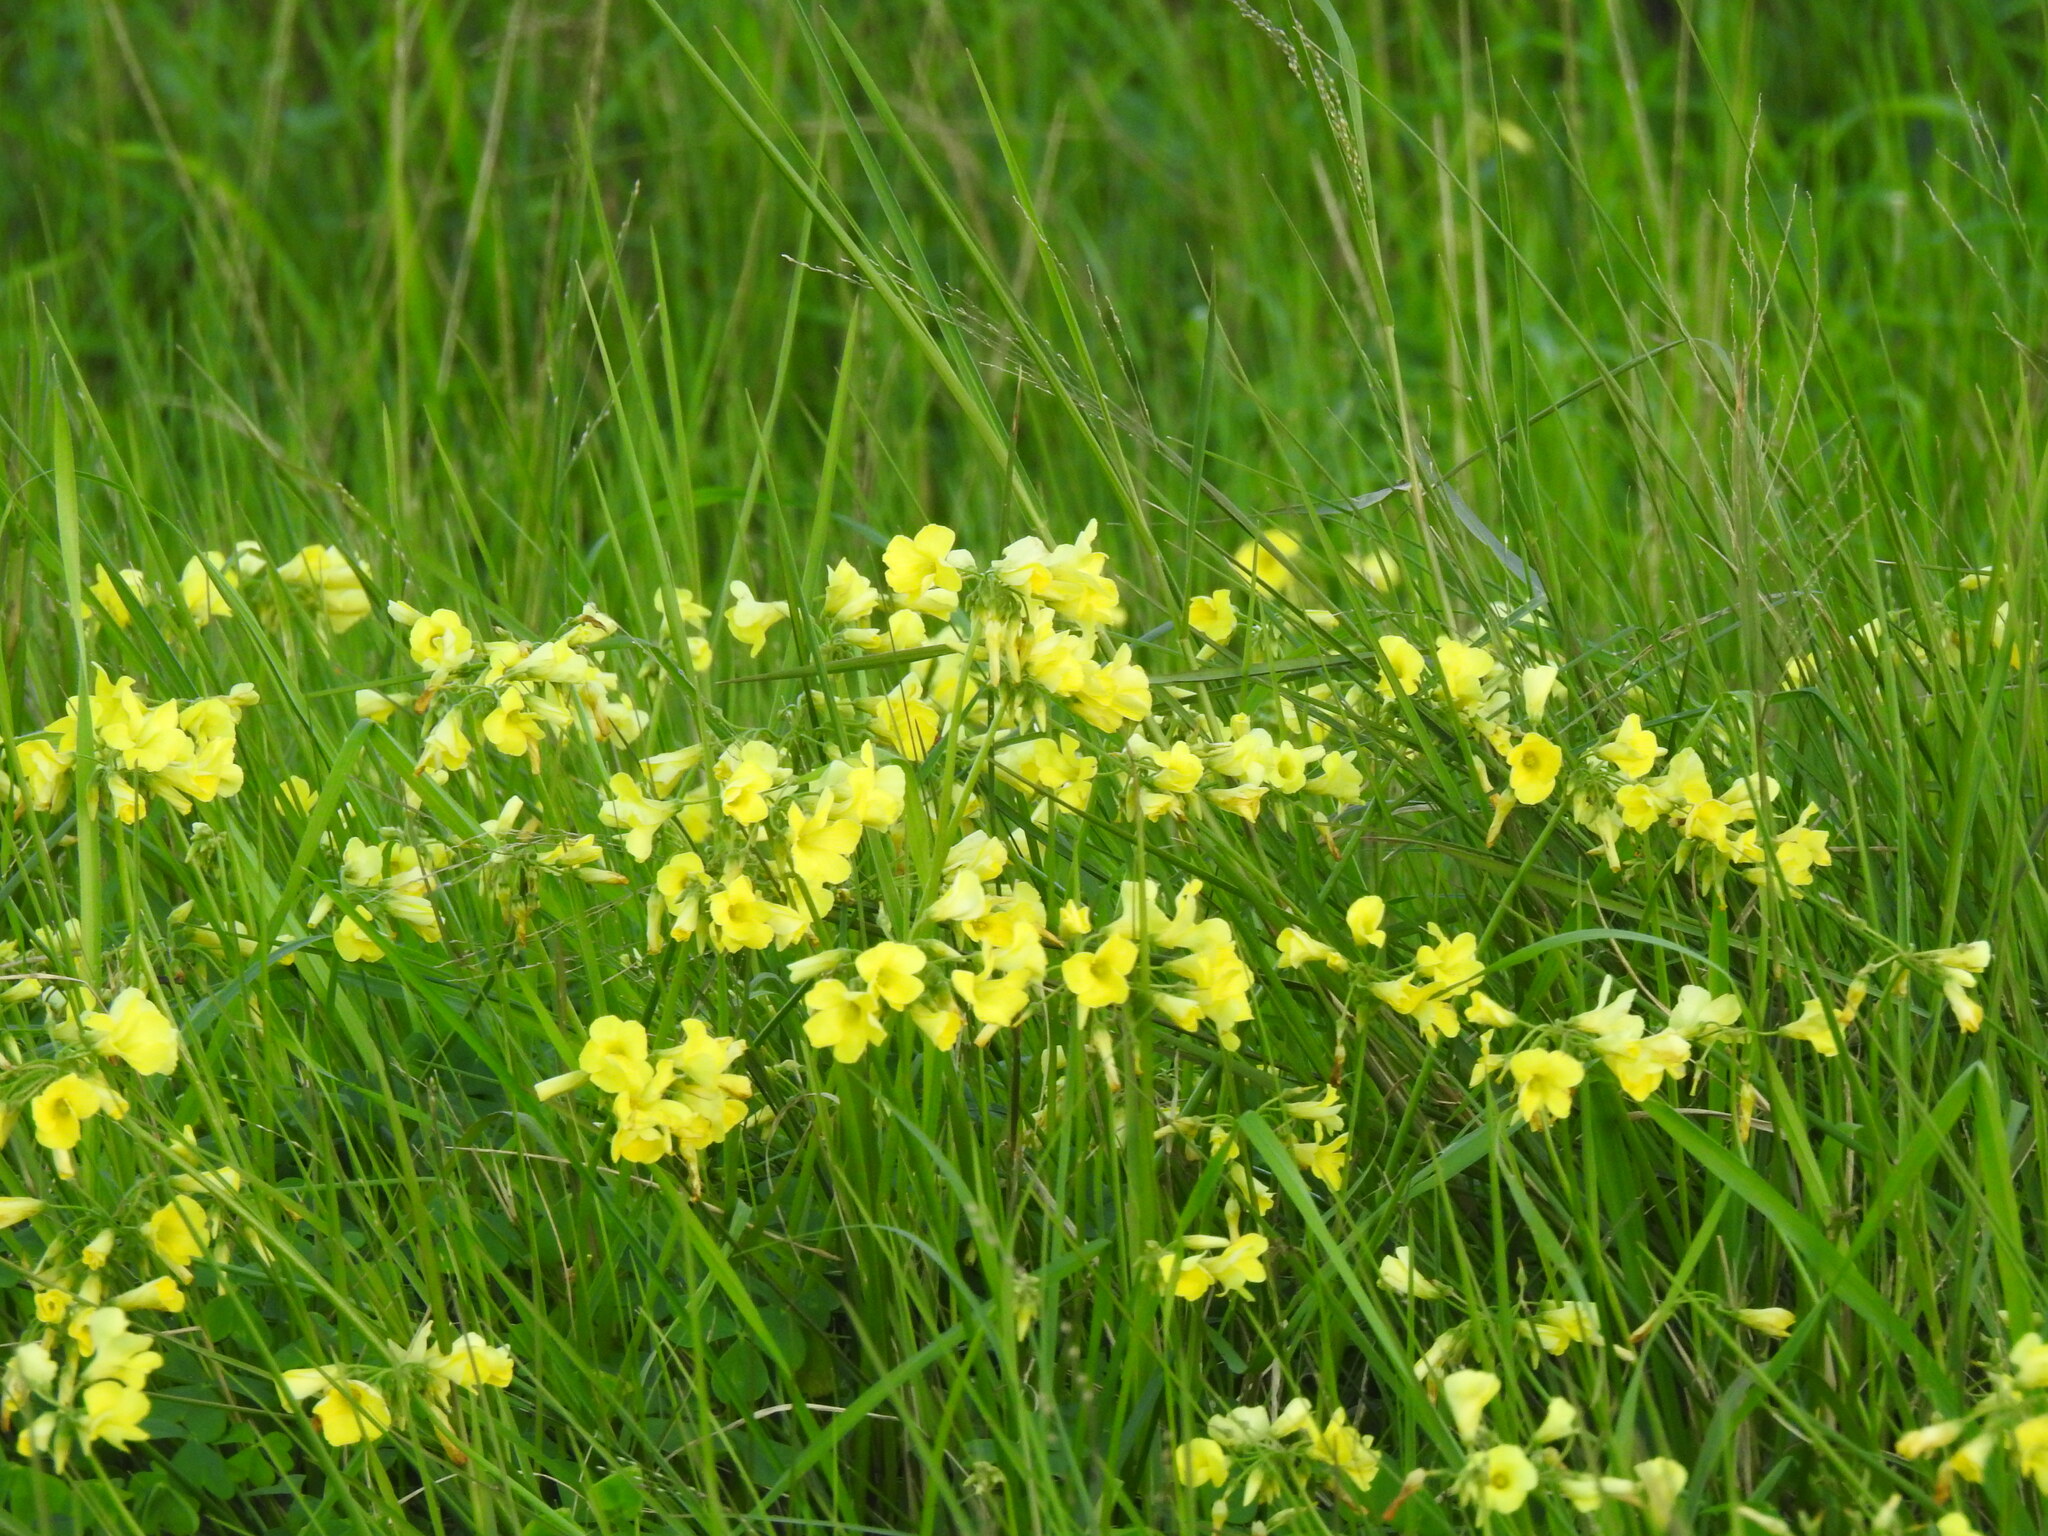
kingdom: Plantae
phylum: Tracheophyta
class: Magnoliopsida
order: Oxalidales
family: Oxalidaceae
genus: Oxalis
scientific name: Oxalis pes-caprae
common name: Bermuda-buttercup
